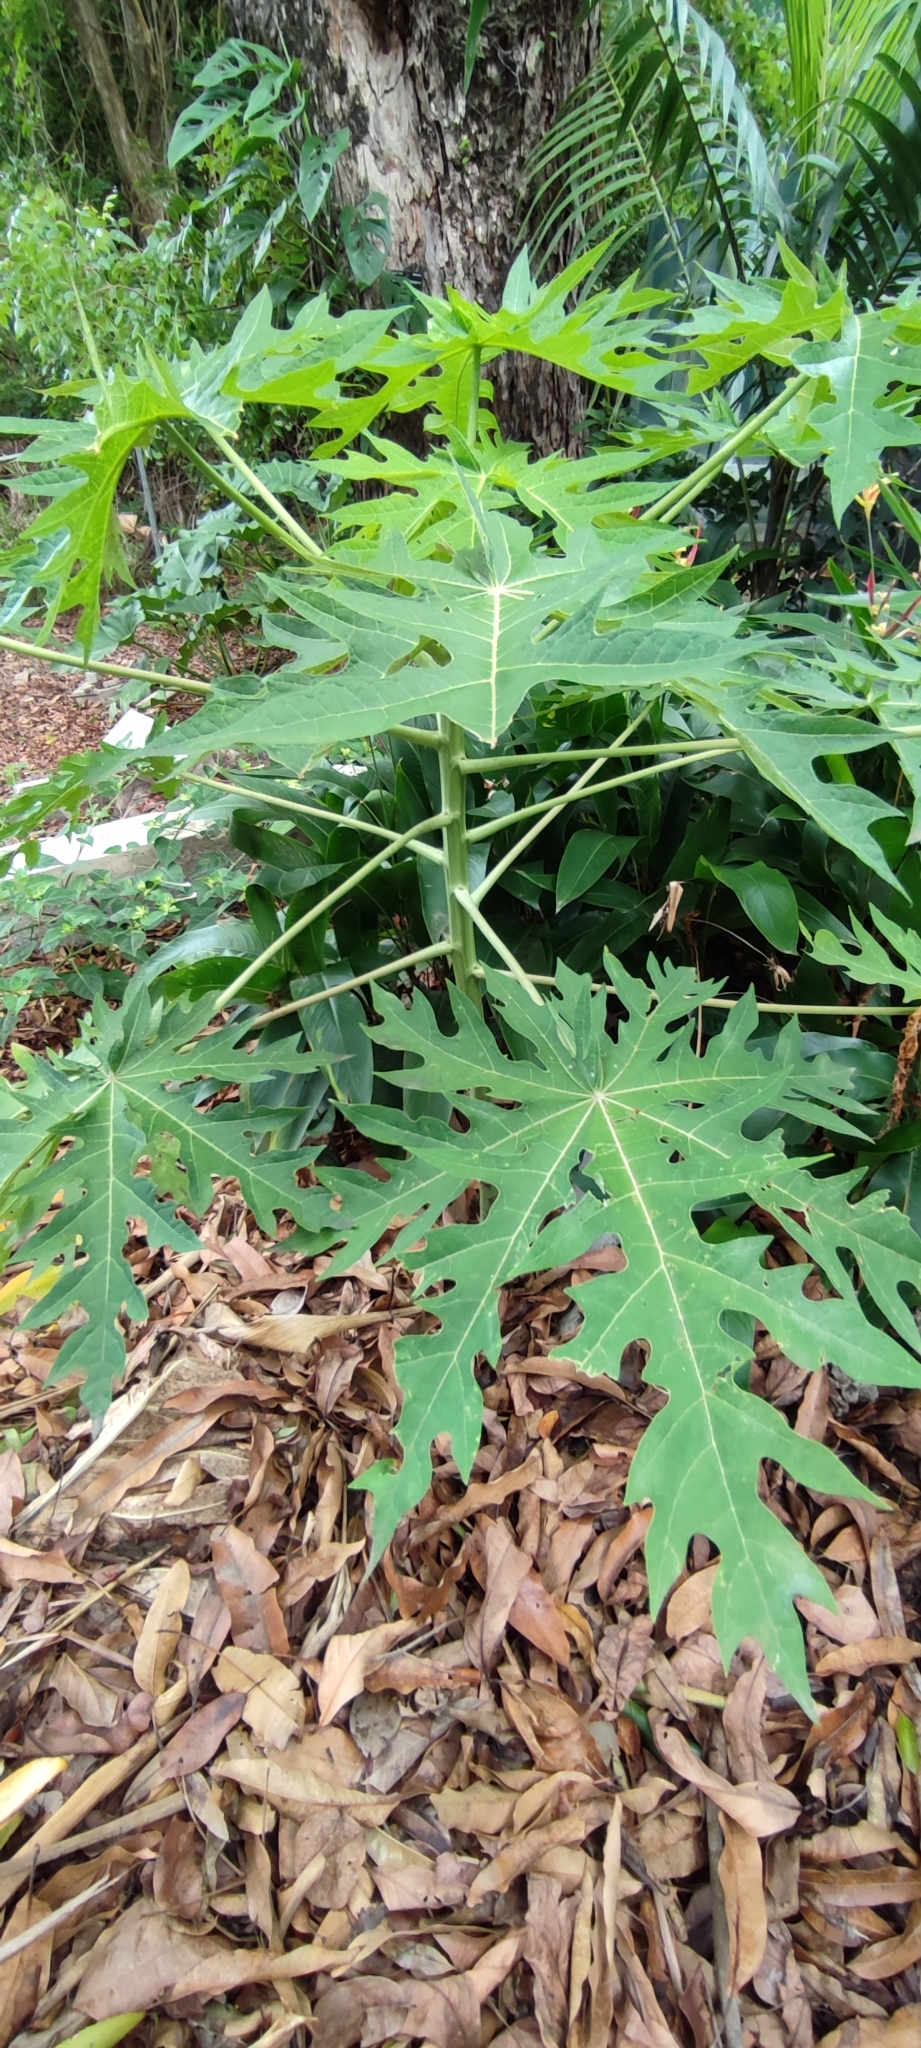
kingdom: Plantae
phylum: Tracheophyta
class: Magnoliopsida
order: Brassicales
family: Caricaceae
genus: Carica
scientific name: Carica papaya
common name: Papaya
